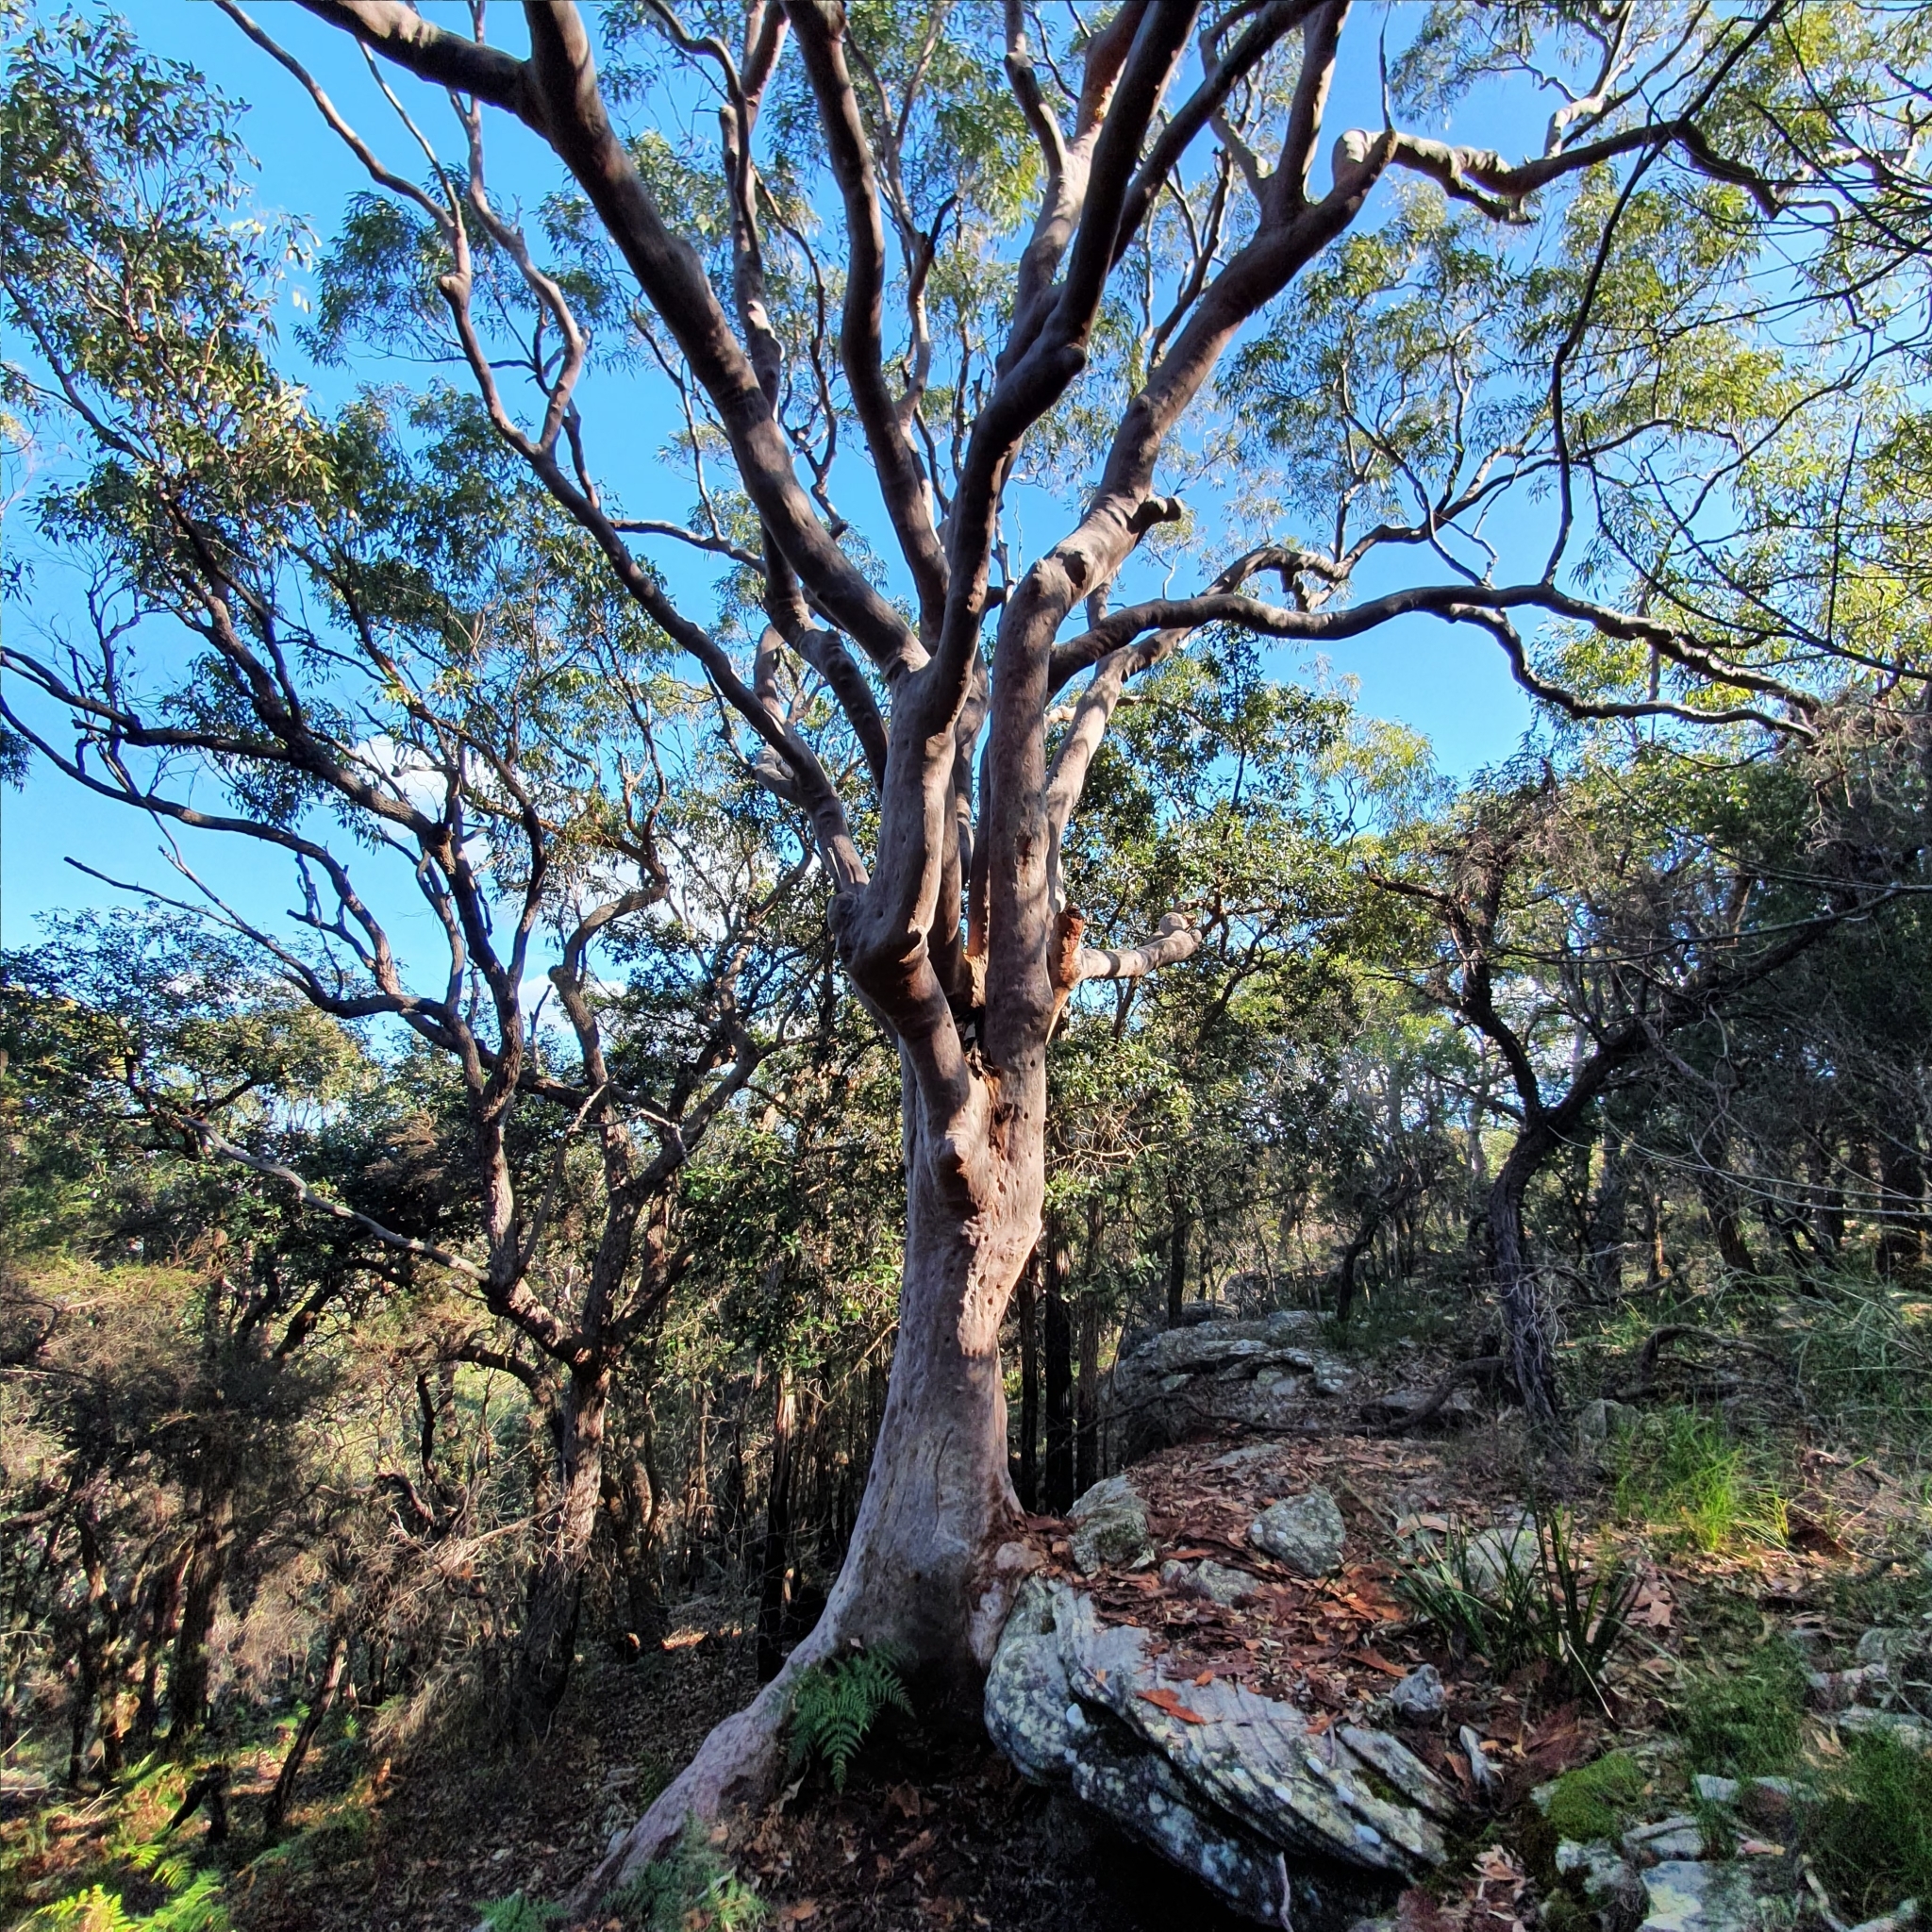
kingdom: Plantae
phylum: Tracheophyta
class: Magnoliopsida
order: Myrtales
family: Myrtaceae
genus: Angophora
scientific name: Angophora costata
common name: Gum myrtle
